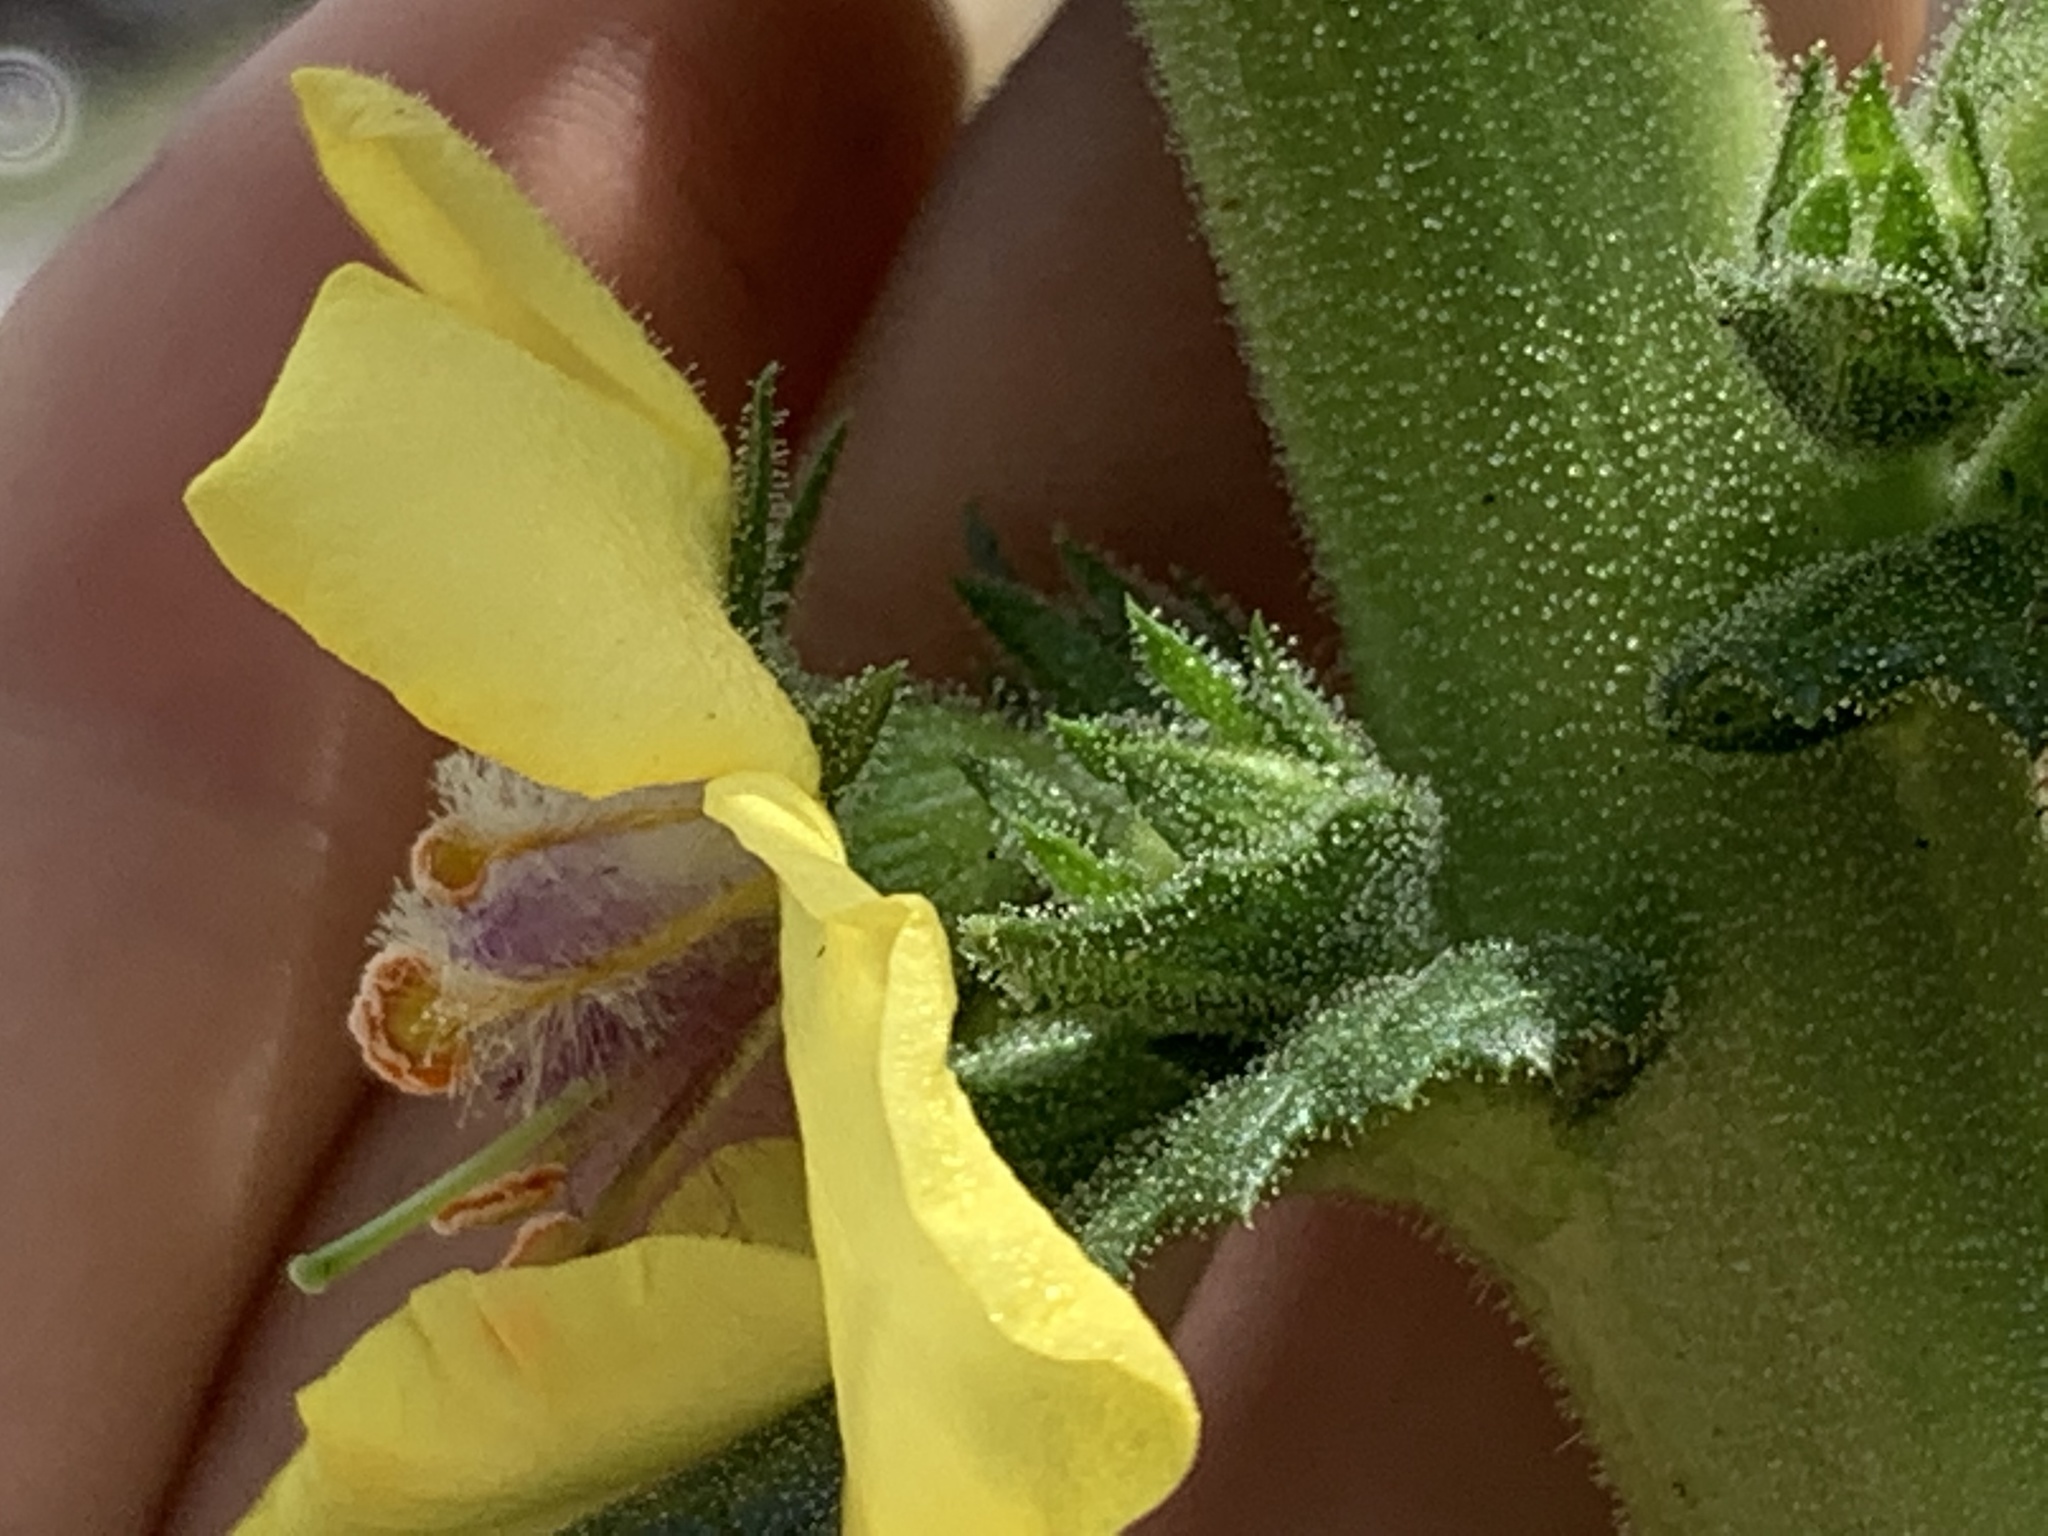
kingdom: Plantae
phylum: Tracheophyta
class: Magnoliopsida
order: Lamiales
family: Scrophulariaceae
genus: Verbascum
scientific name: Verbascum virgatum
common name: Twiggy mullein
